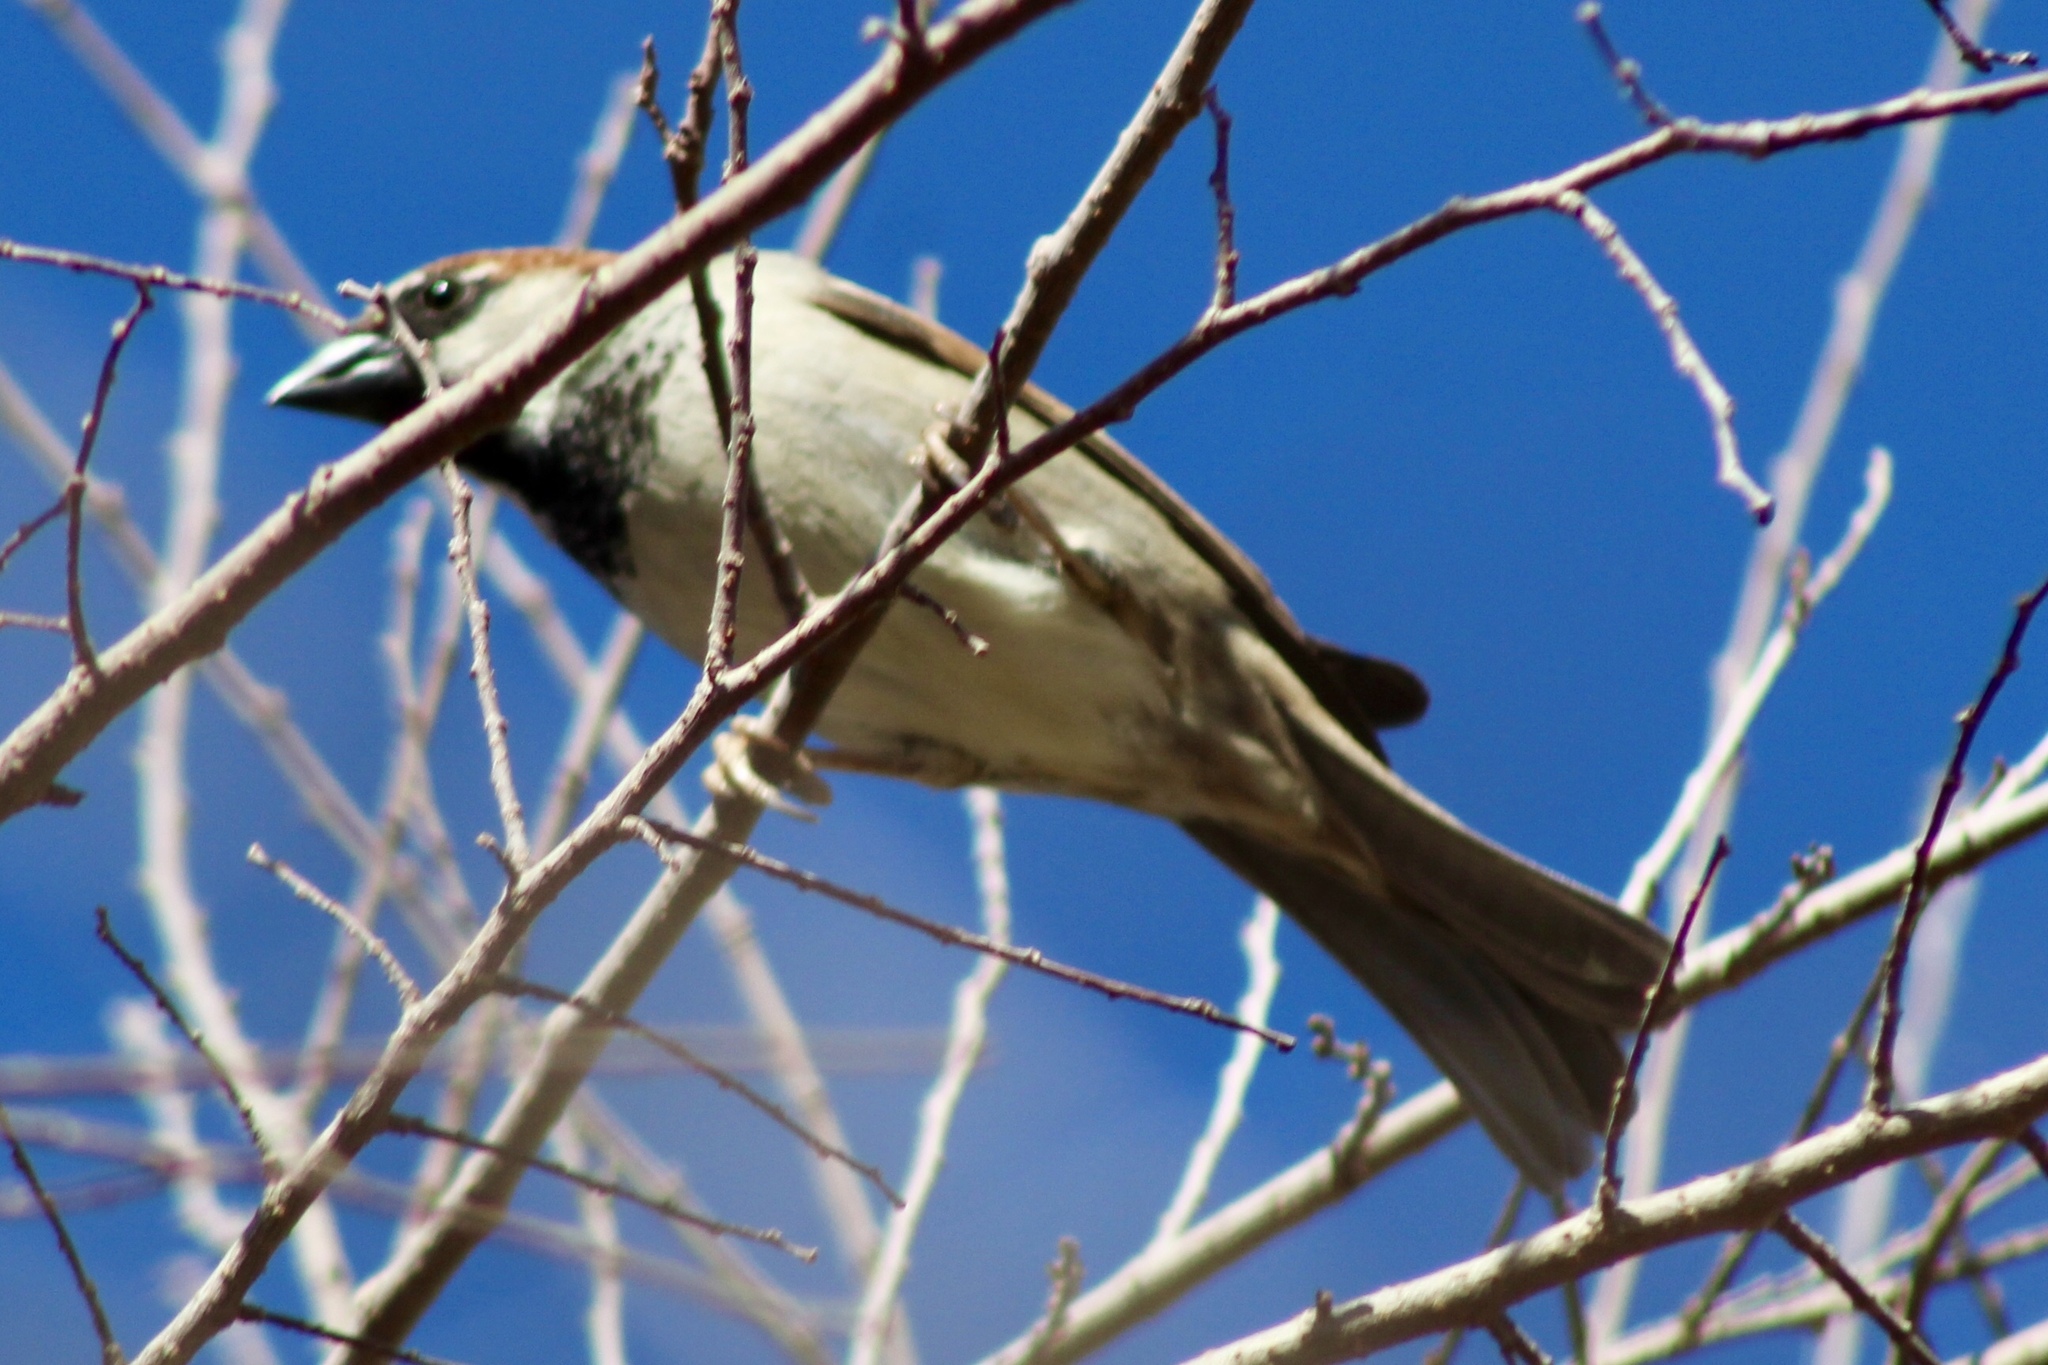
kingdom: Animalia
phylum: Chordata
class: Aves
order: Passeriformes
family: Passeridae
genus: Passer
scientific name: Passer domesticus
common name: House sparrow
